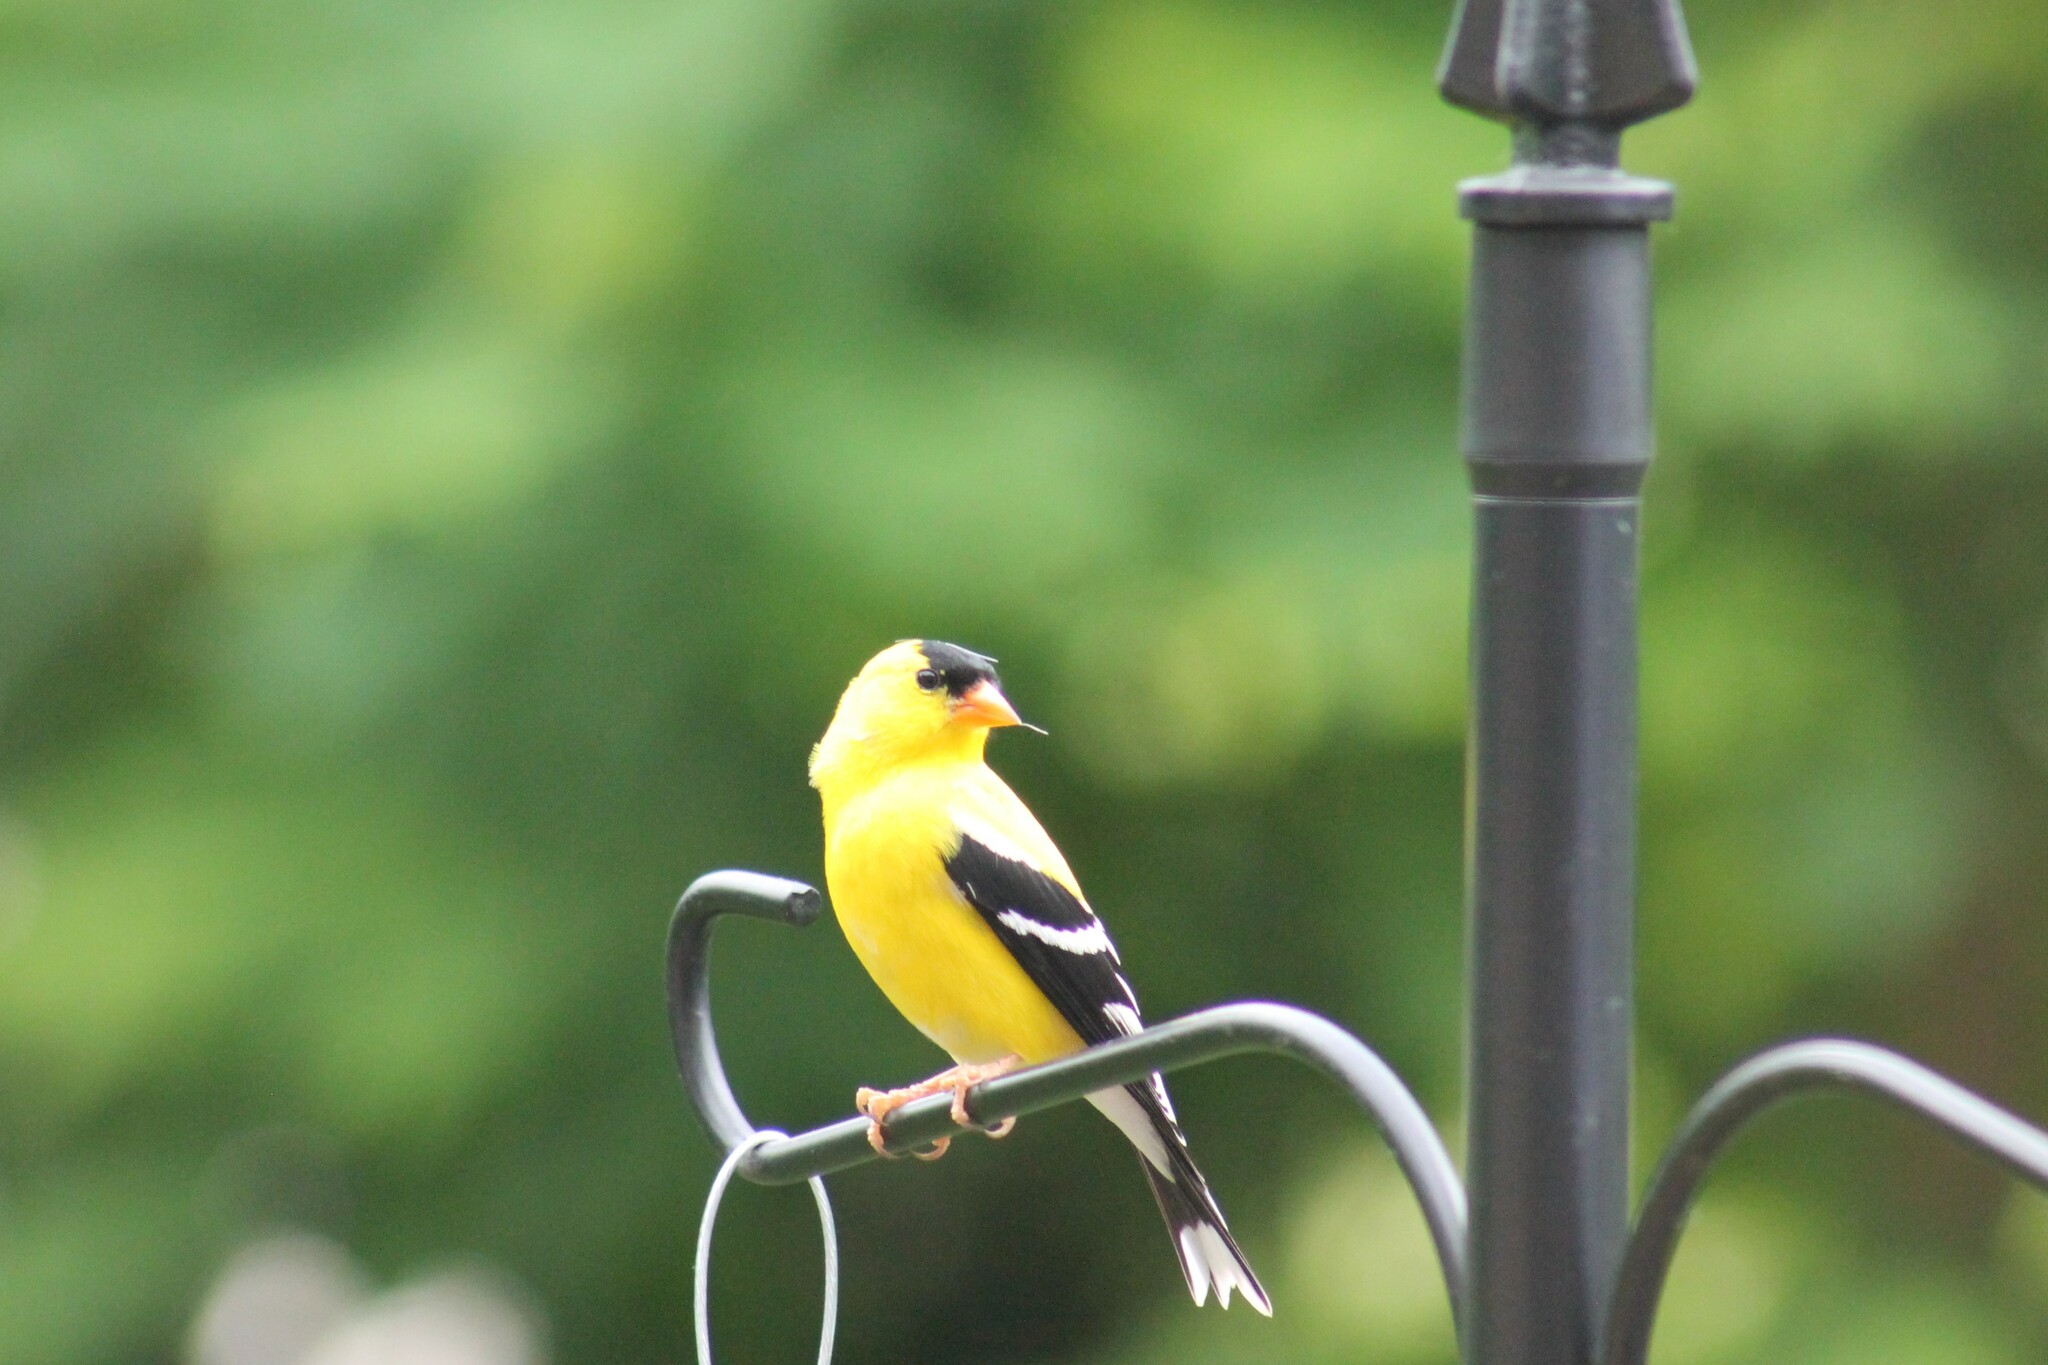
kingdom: Animalia
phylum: Chordata
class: Aves
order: Passeriformes
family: Fringillidae
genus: Spinus
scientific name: Spinus tristis
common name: American goldfinch
